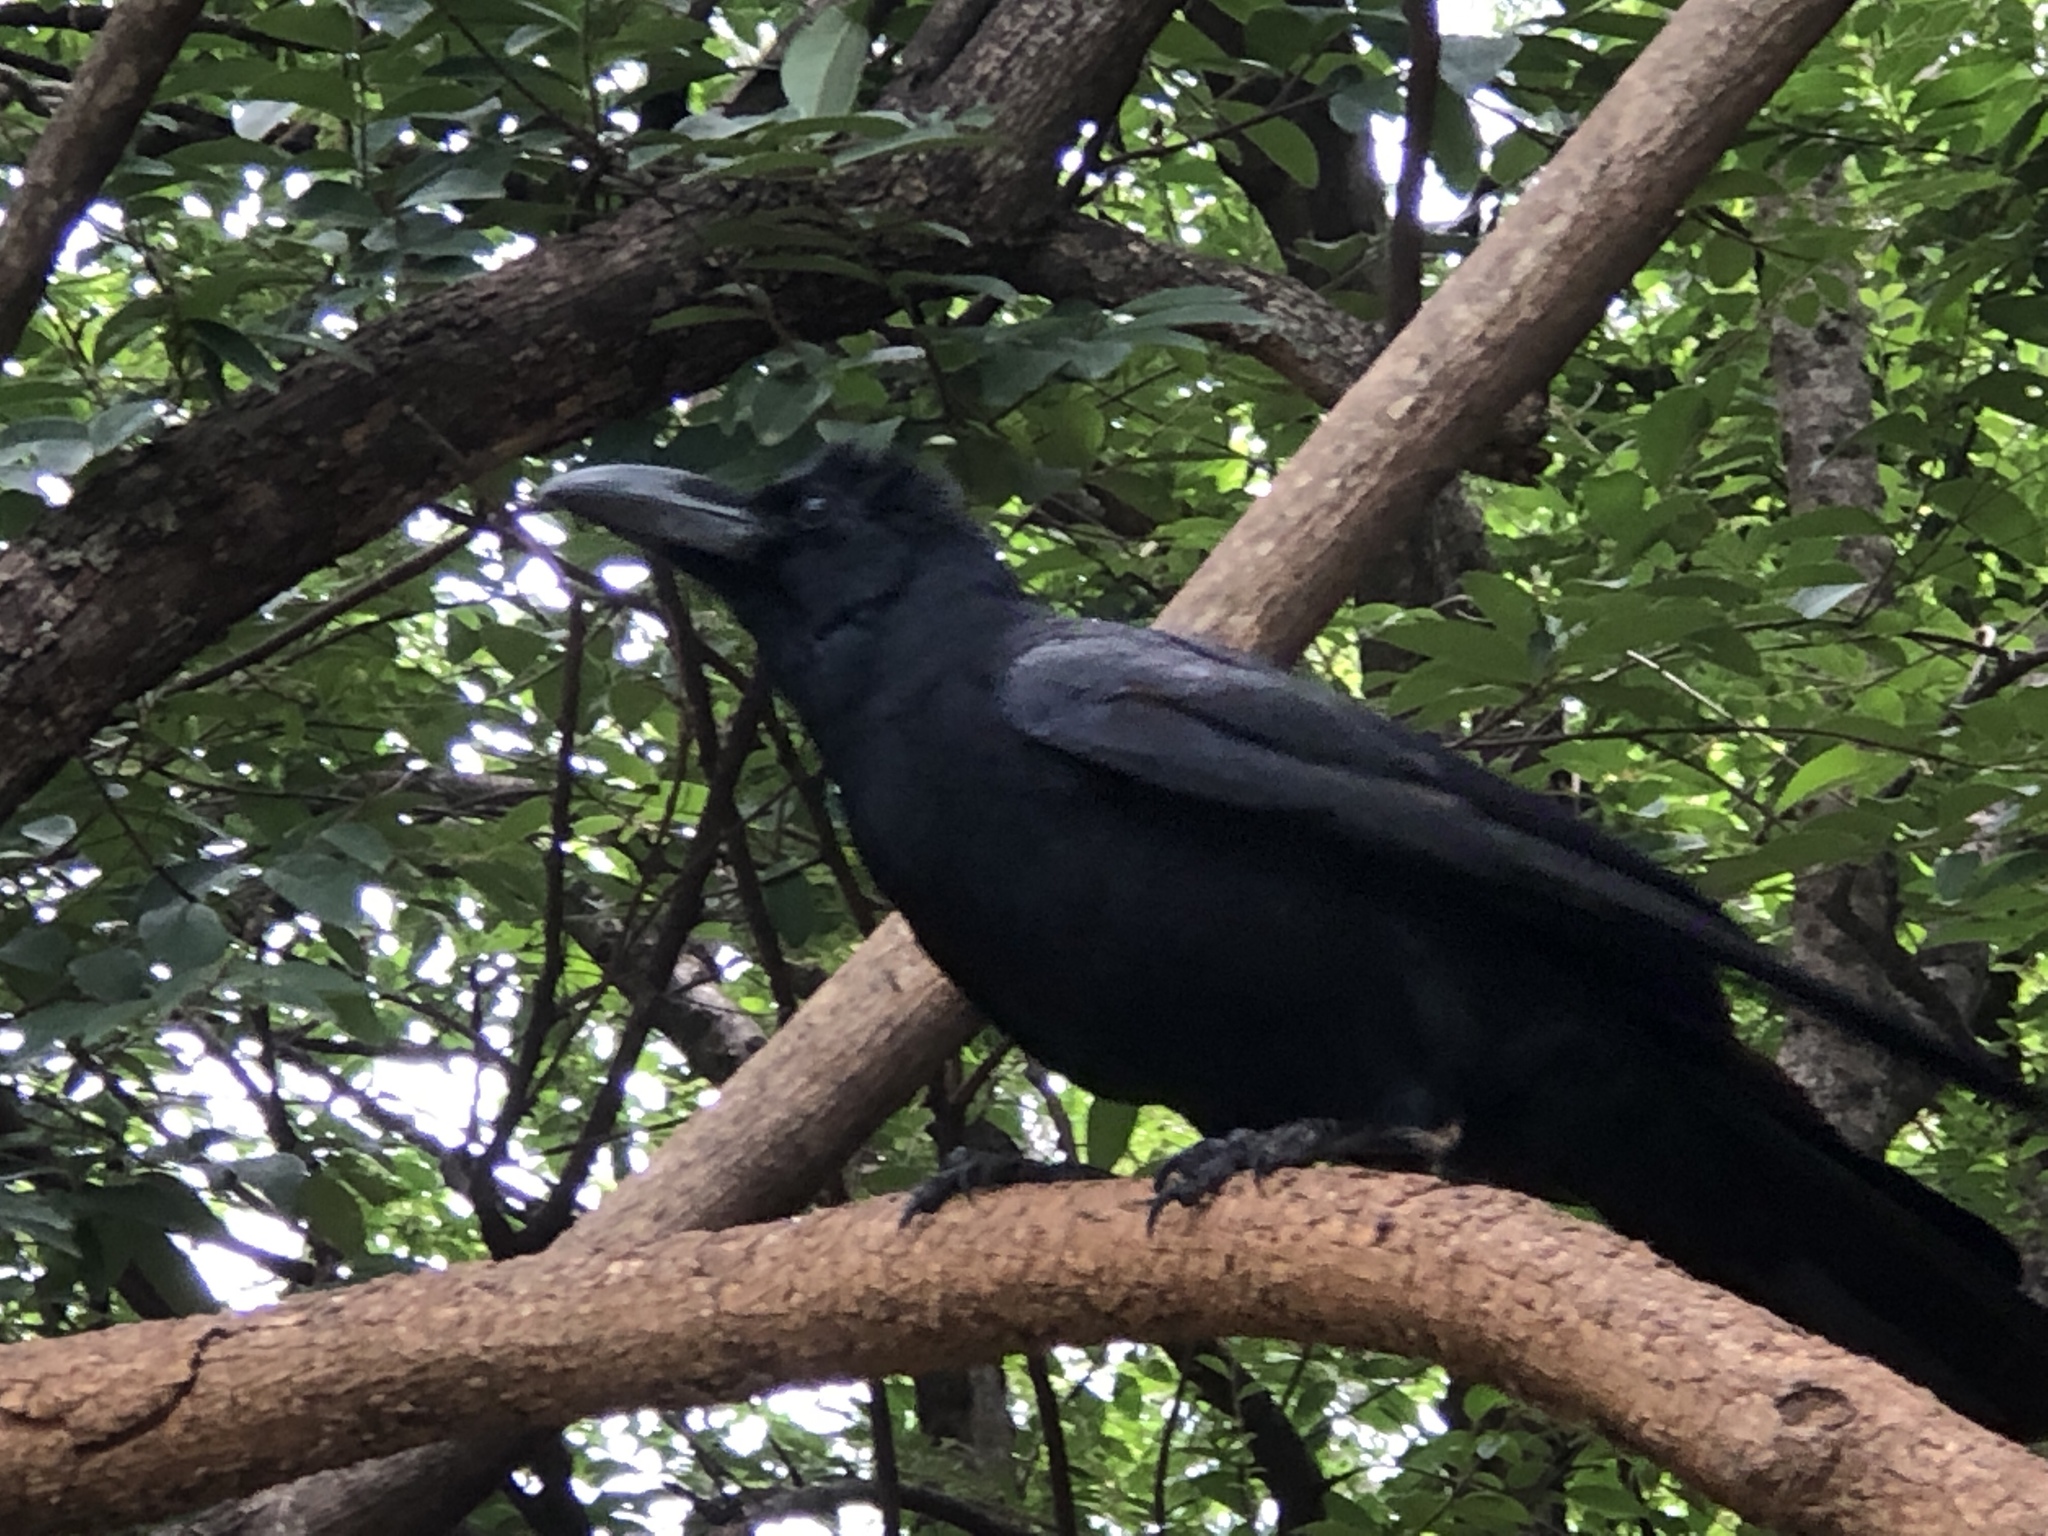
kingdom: Animalia
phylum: Chordata
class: Aves
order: Passeriformes
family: Corvidae
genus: Corvus
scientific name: Corvus macrorhynchos
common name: Large-billed crow
